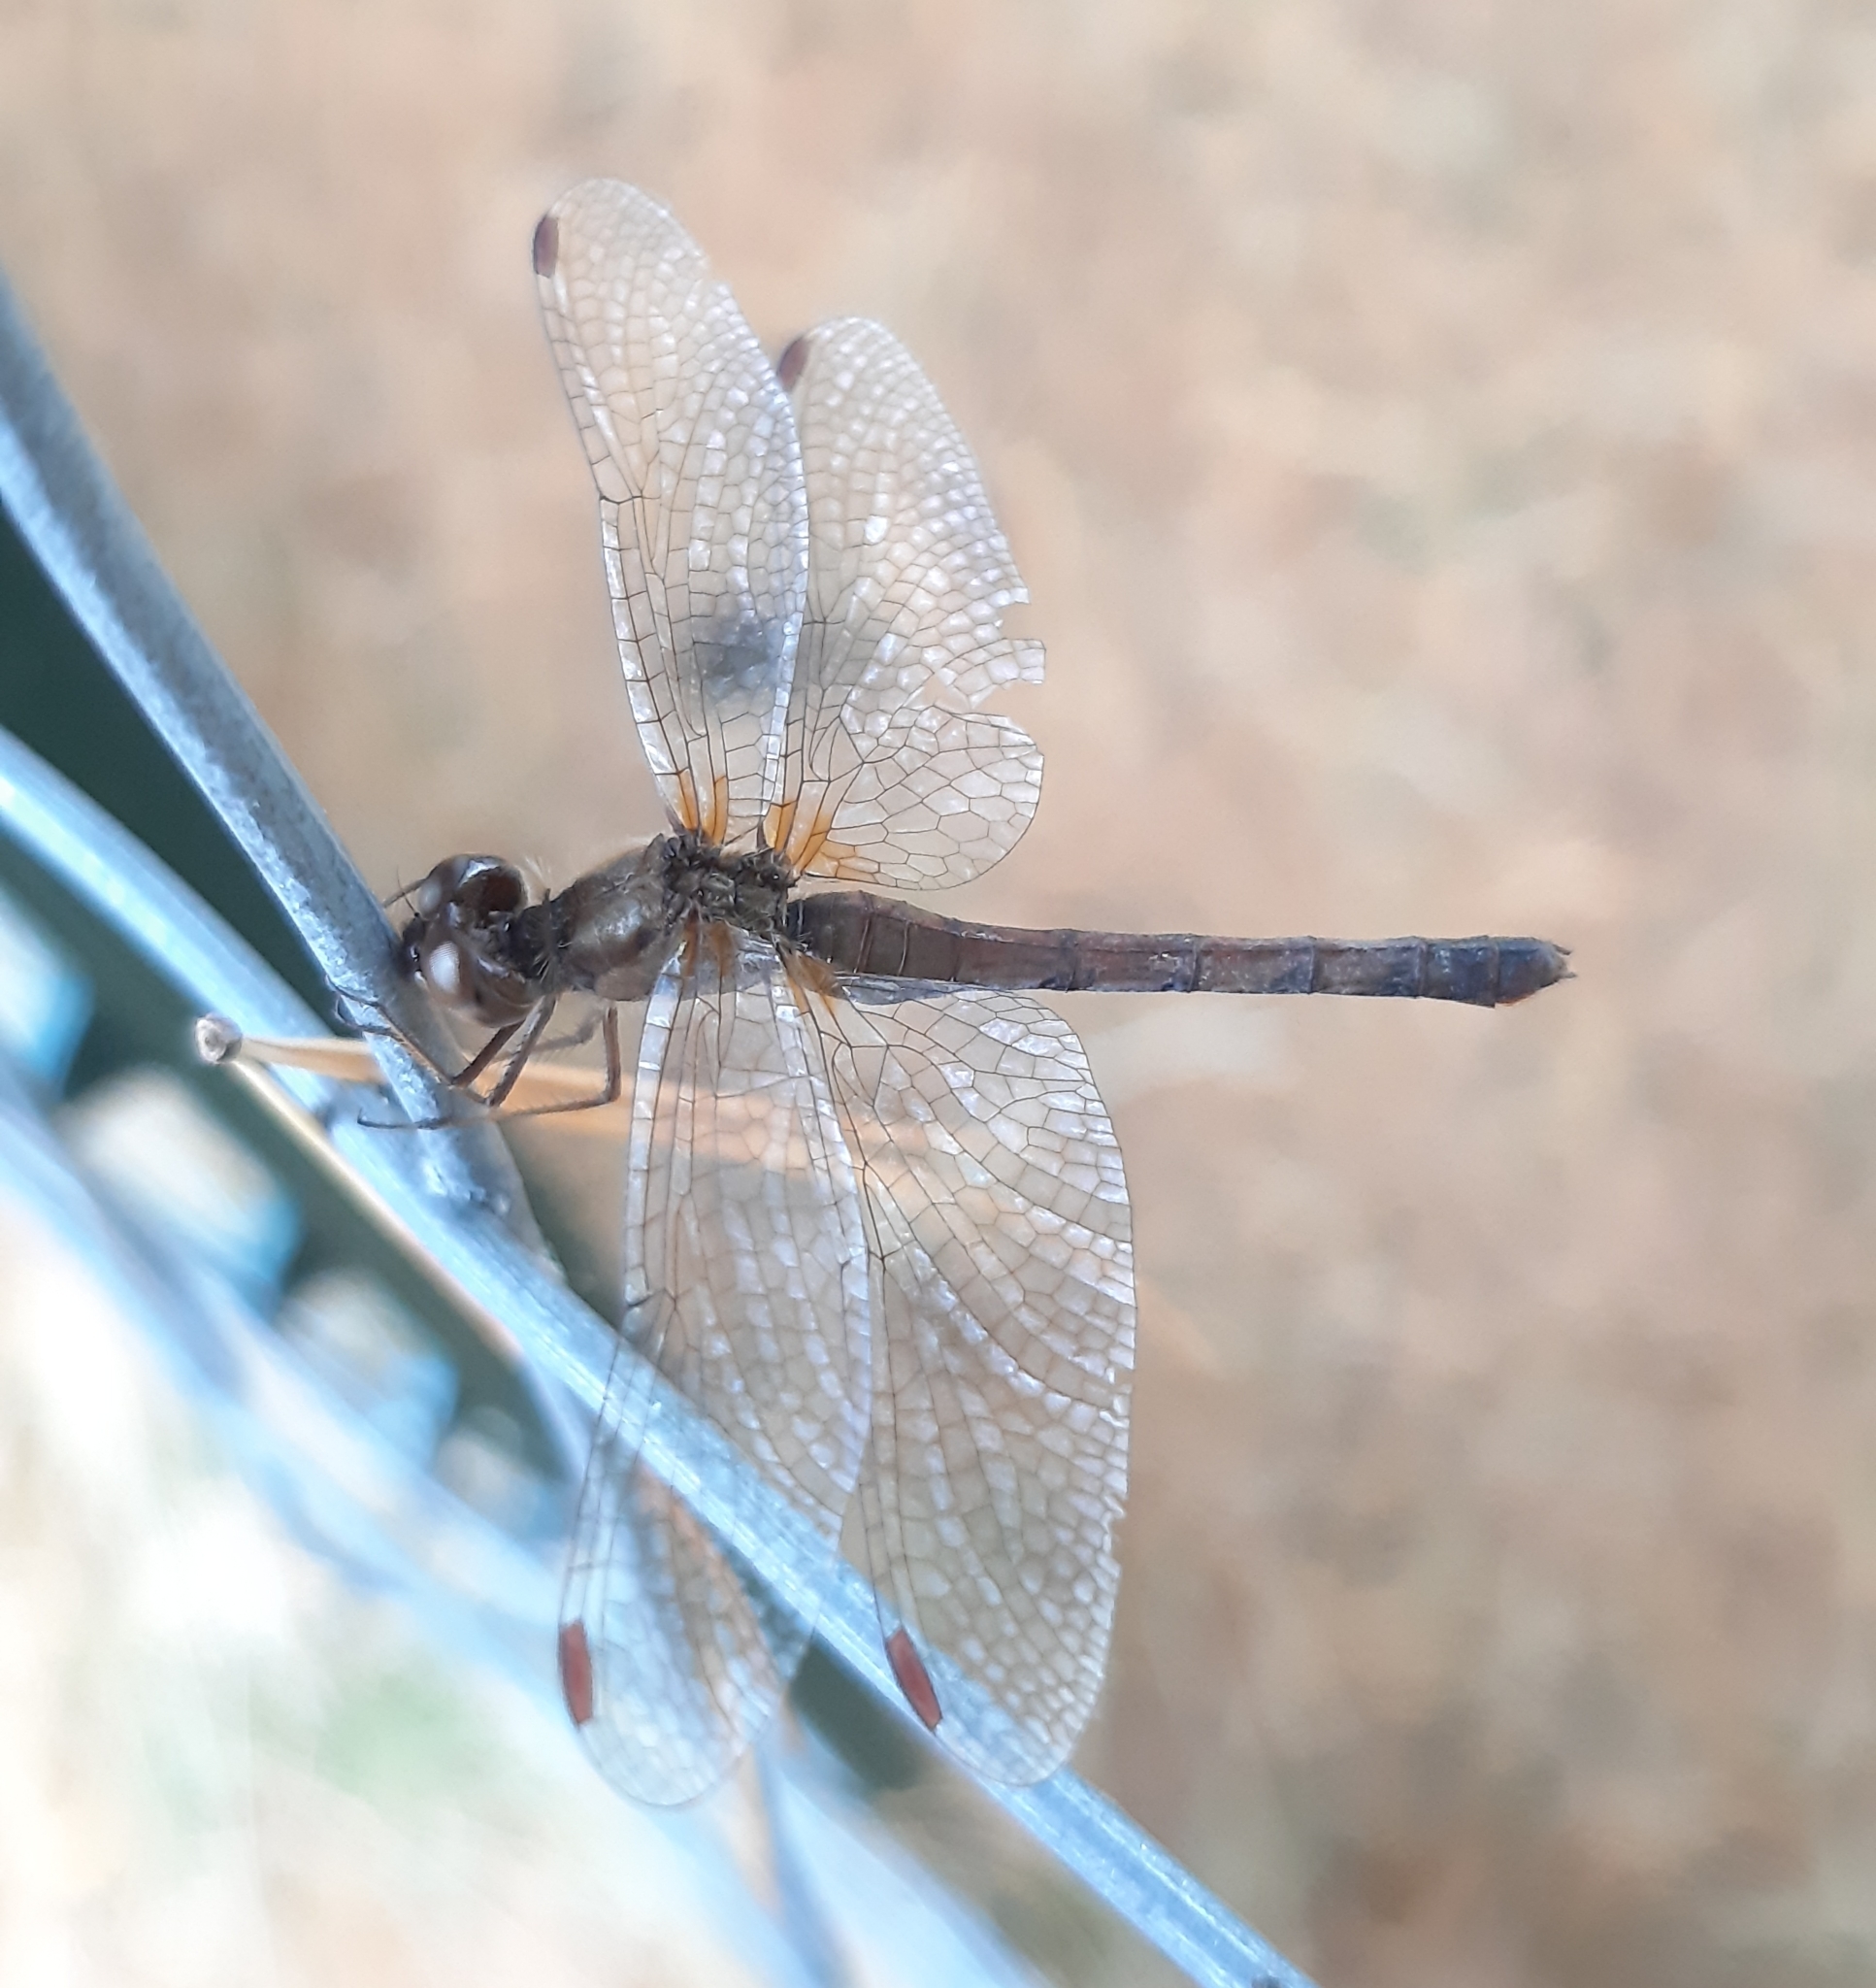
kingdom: Animalia
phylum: Arthropoda
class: Insecta
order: Odonata
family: Libellulidae
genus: Sympetrum
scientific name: Sympetrum vicinum
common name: Autumn meadowhawk
